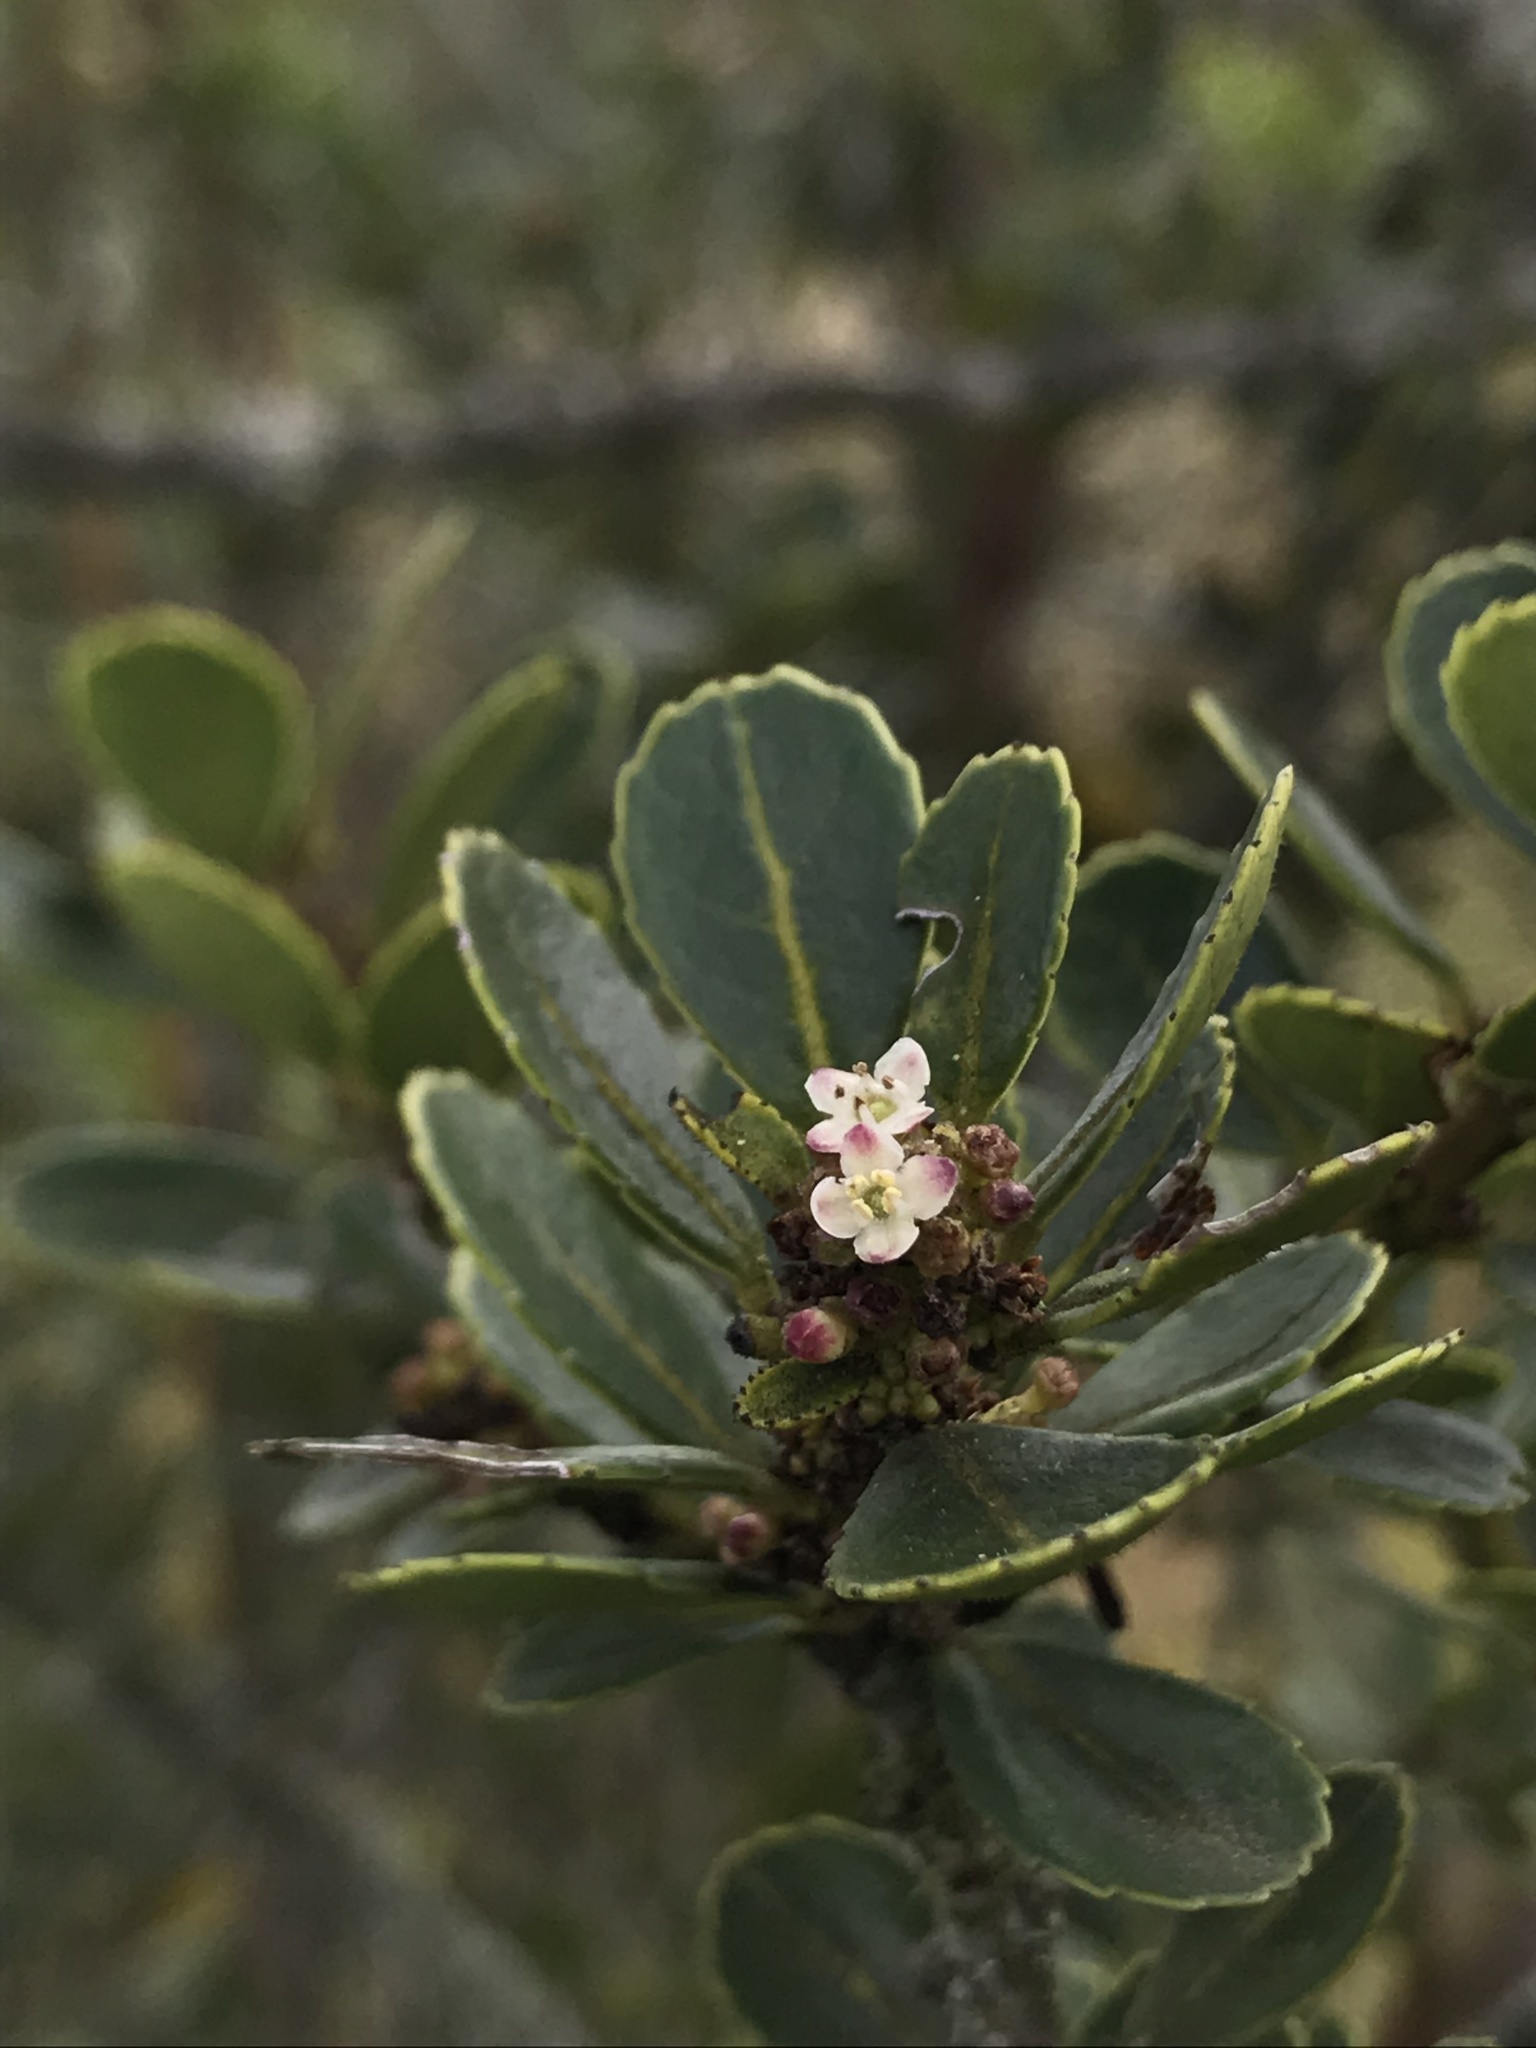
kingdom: Plantae
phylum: Tracheophyta
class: Magnoliopsida
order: Aquifoliales
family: Aquifoliaceae
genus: Ilex
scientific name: Ilex microphylla
